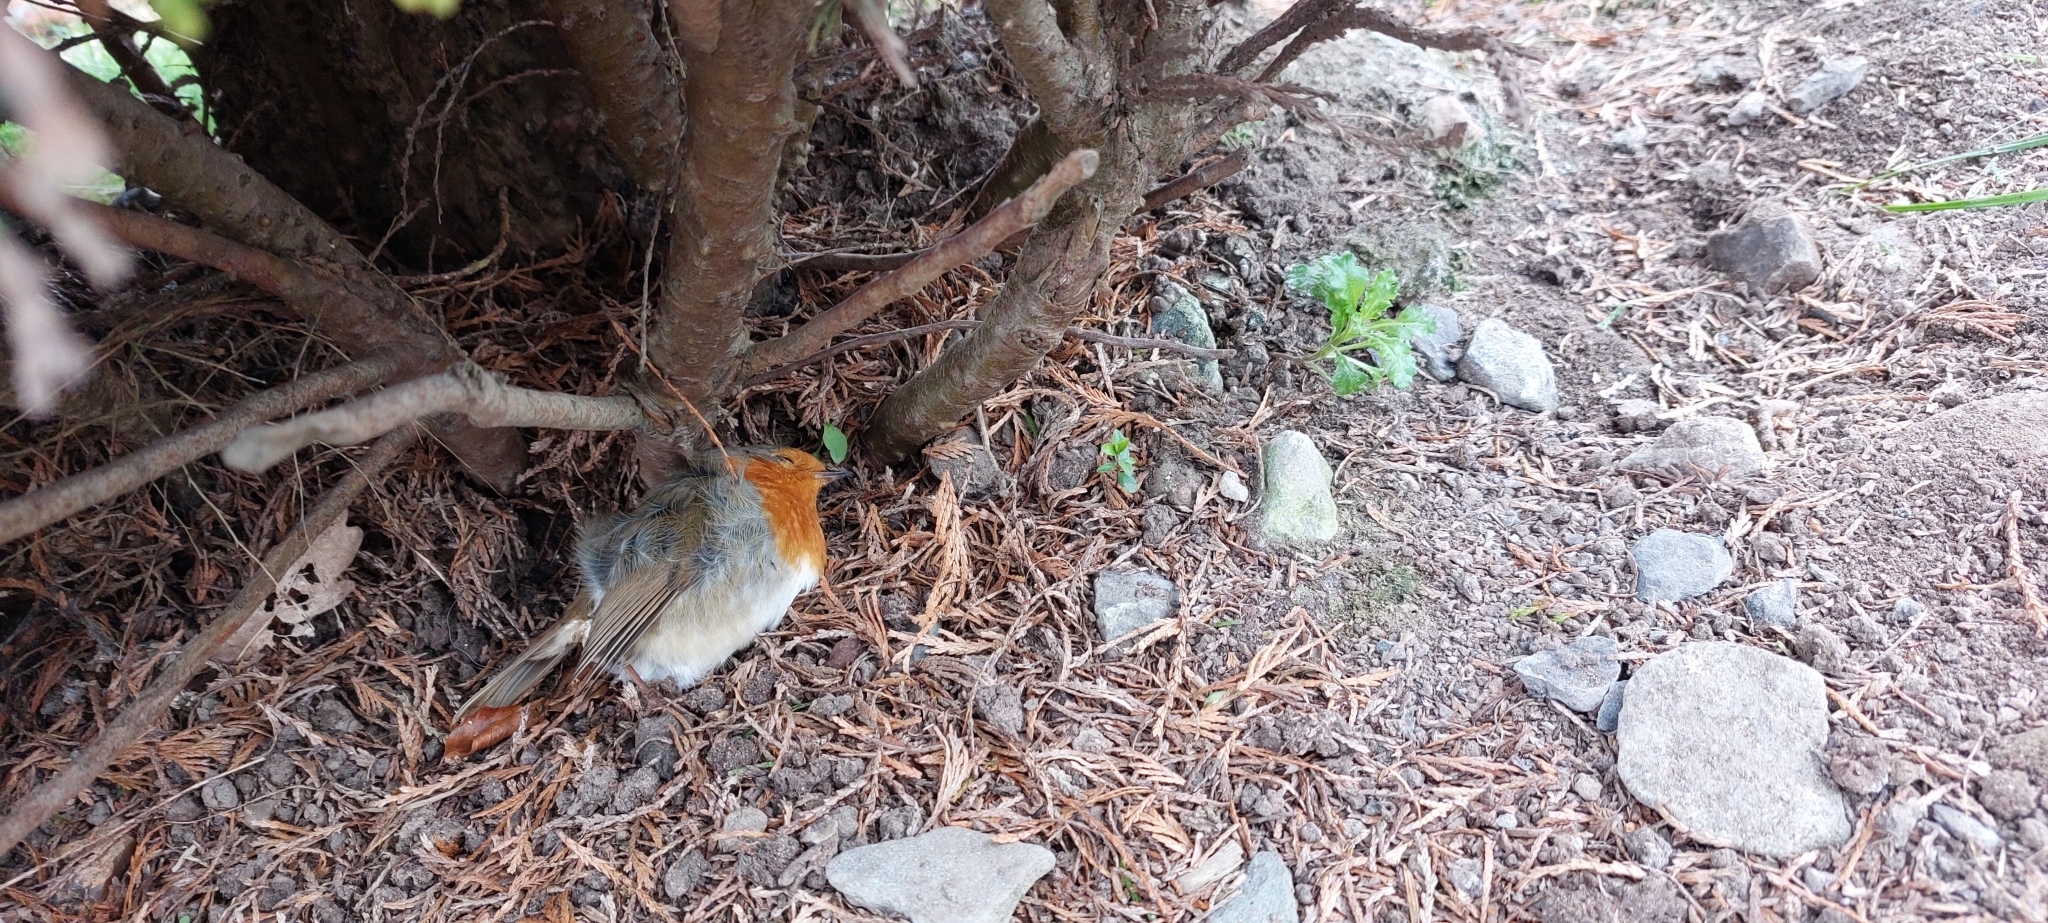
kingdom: Animalia
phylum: Chordata
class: Aves
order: Passeriformes
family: Muscicapidae
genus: Erithacus
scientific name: Erithacus rubecula
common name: European robin
